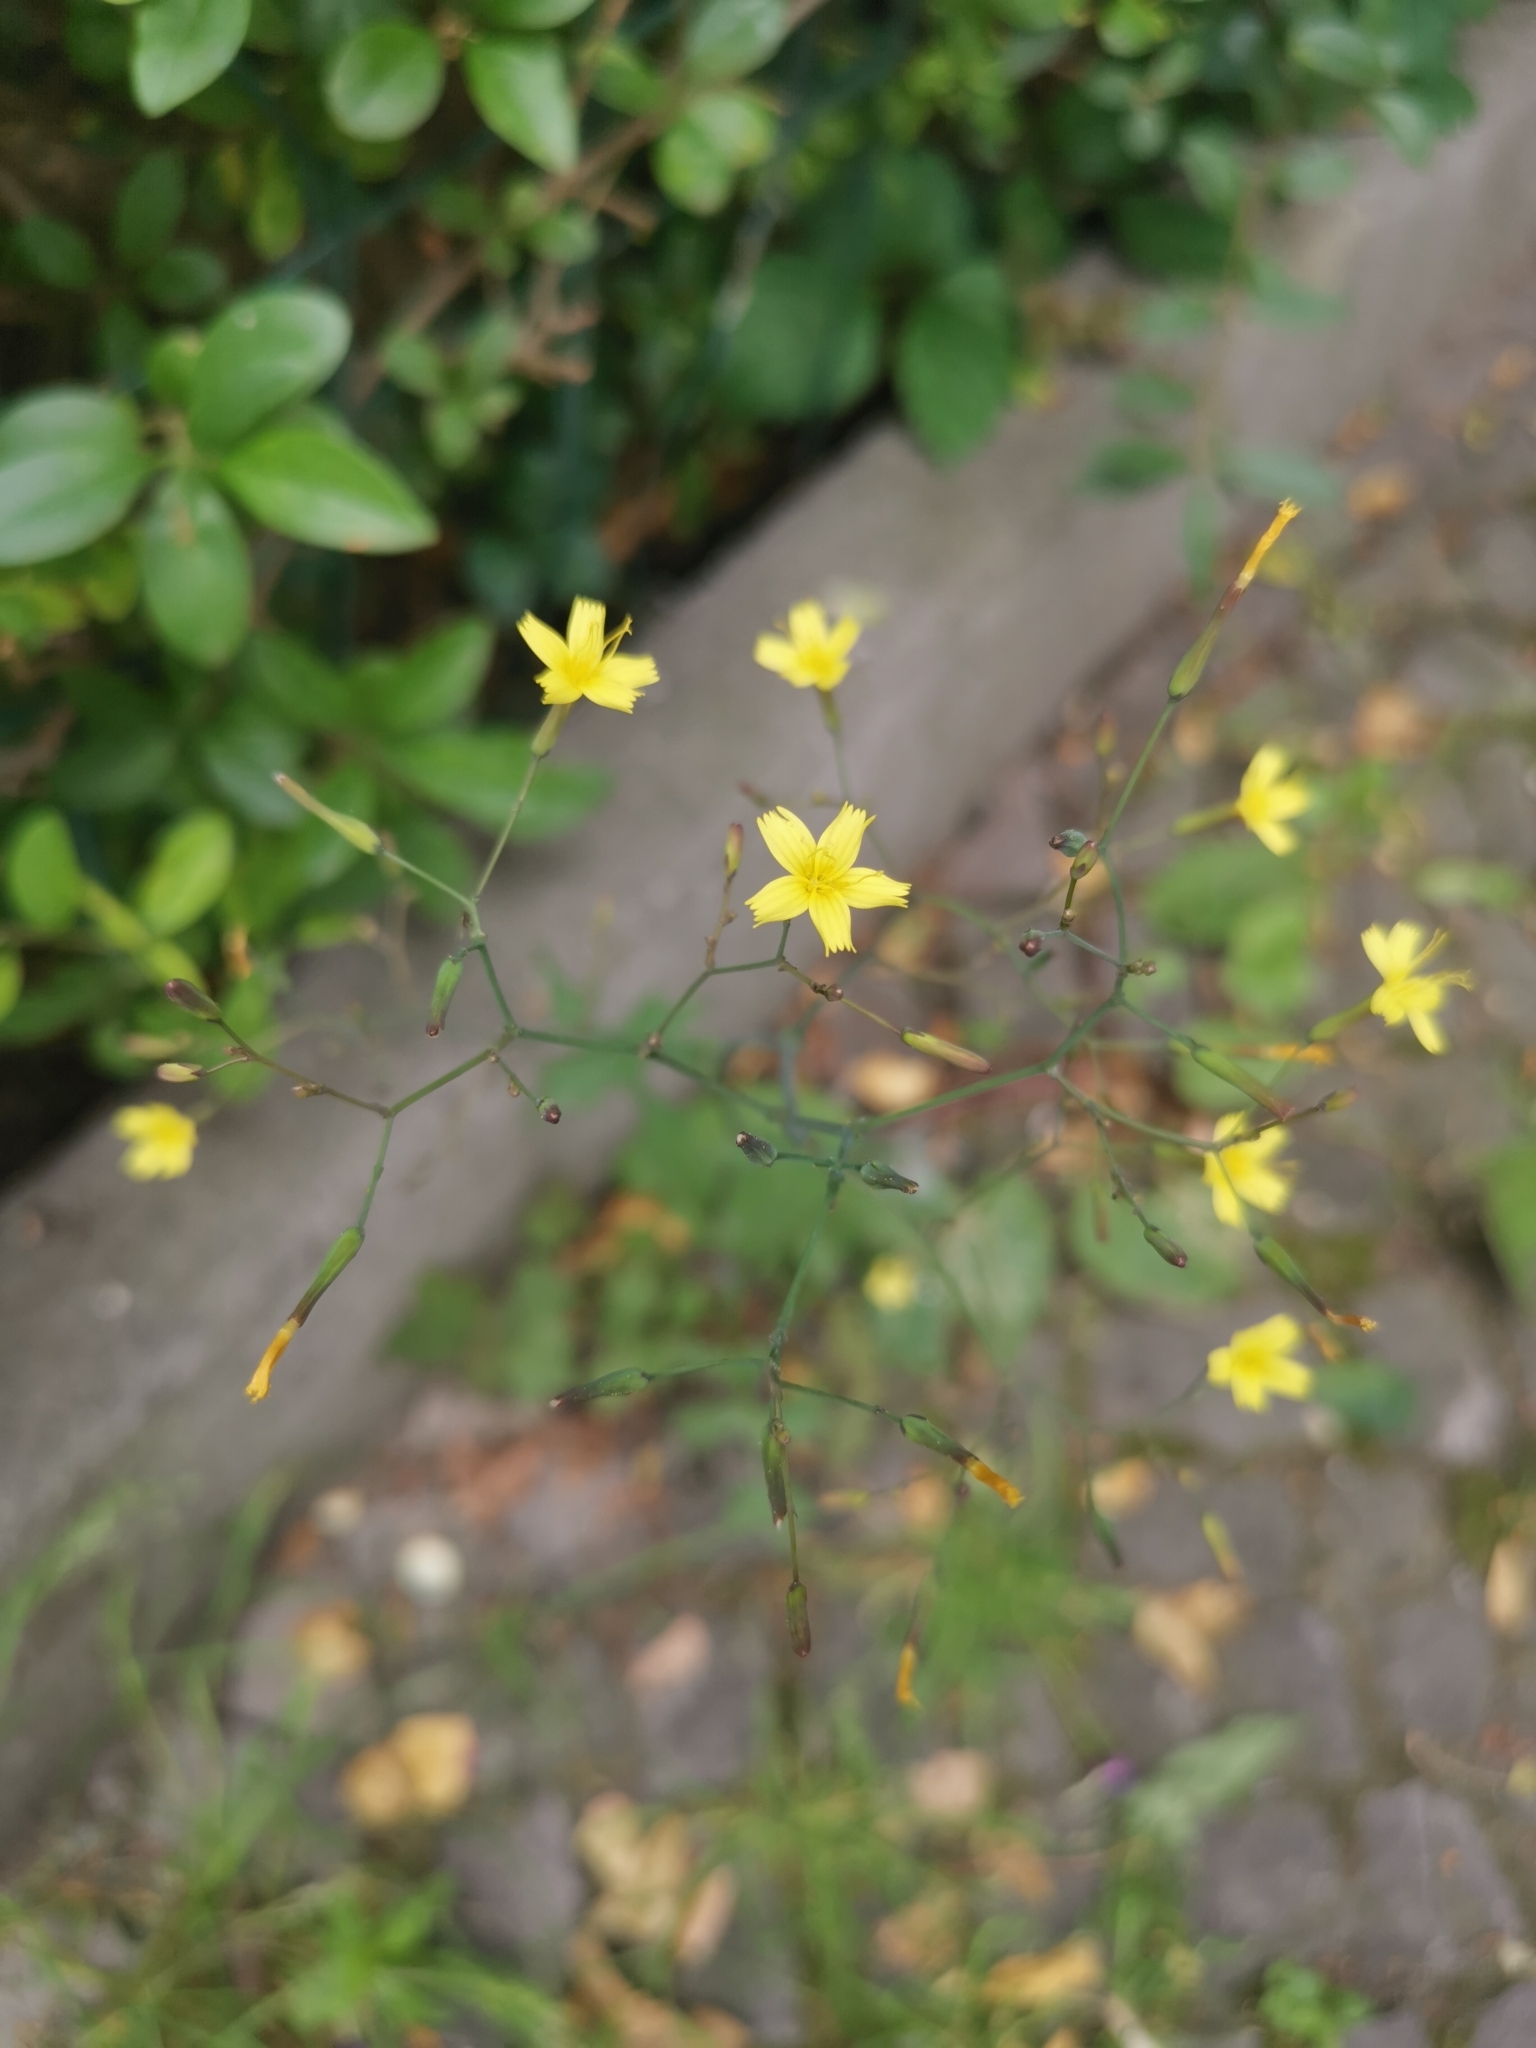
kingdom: Plantae
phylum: Tracheophyta
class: Magnoliopsida
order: Asterales
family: Asteraceae
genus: Mycelis
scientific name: Mycelis muralis
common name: Wall lettuce
